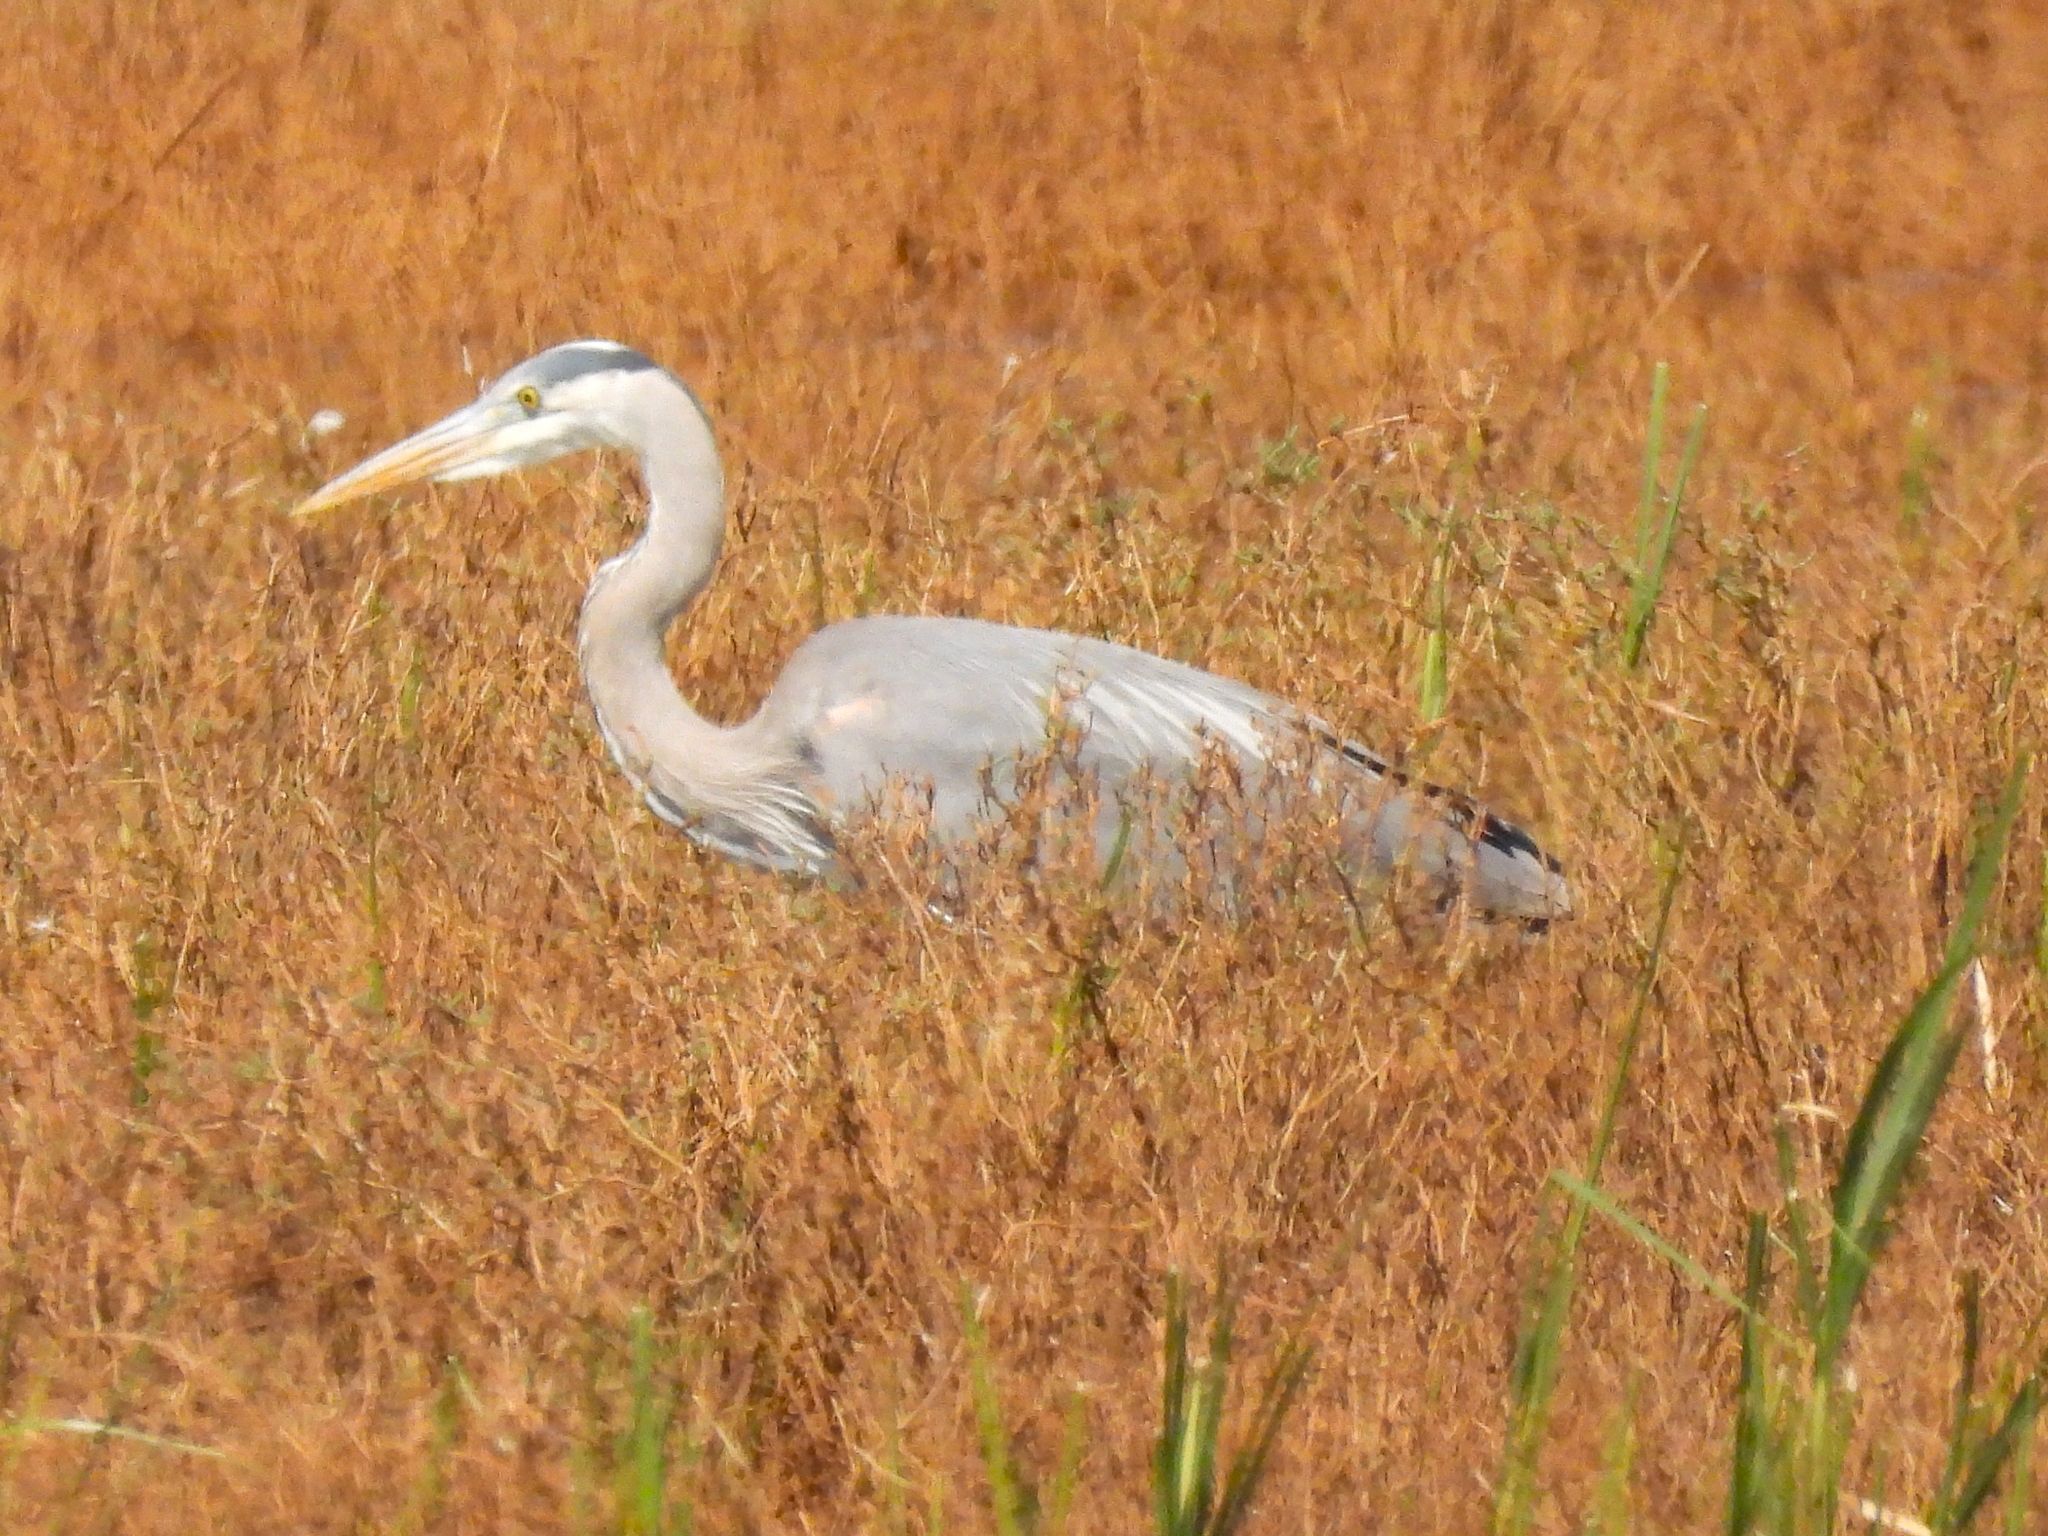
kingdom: Animalia
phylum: Chordata
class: Aves
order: Pelecaniformes
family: Ardeidae
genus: Ardea
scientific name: Ardea herodias
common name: Great blue heron
